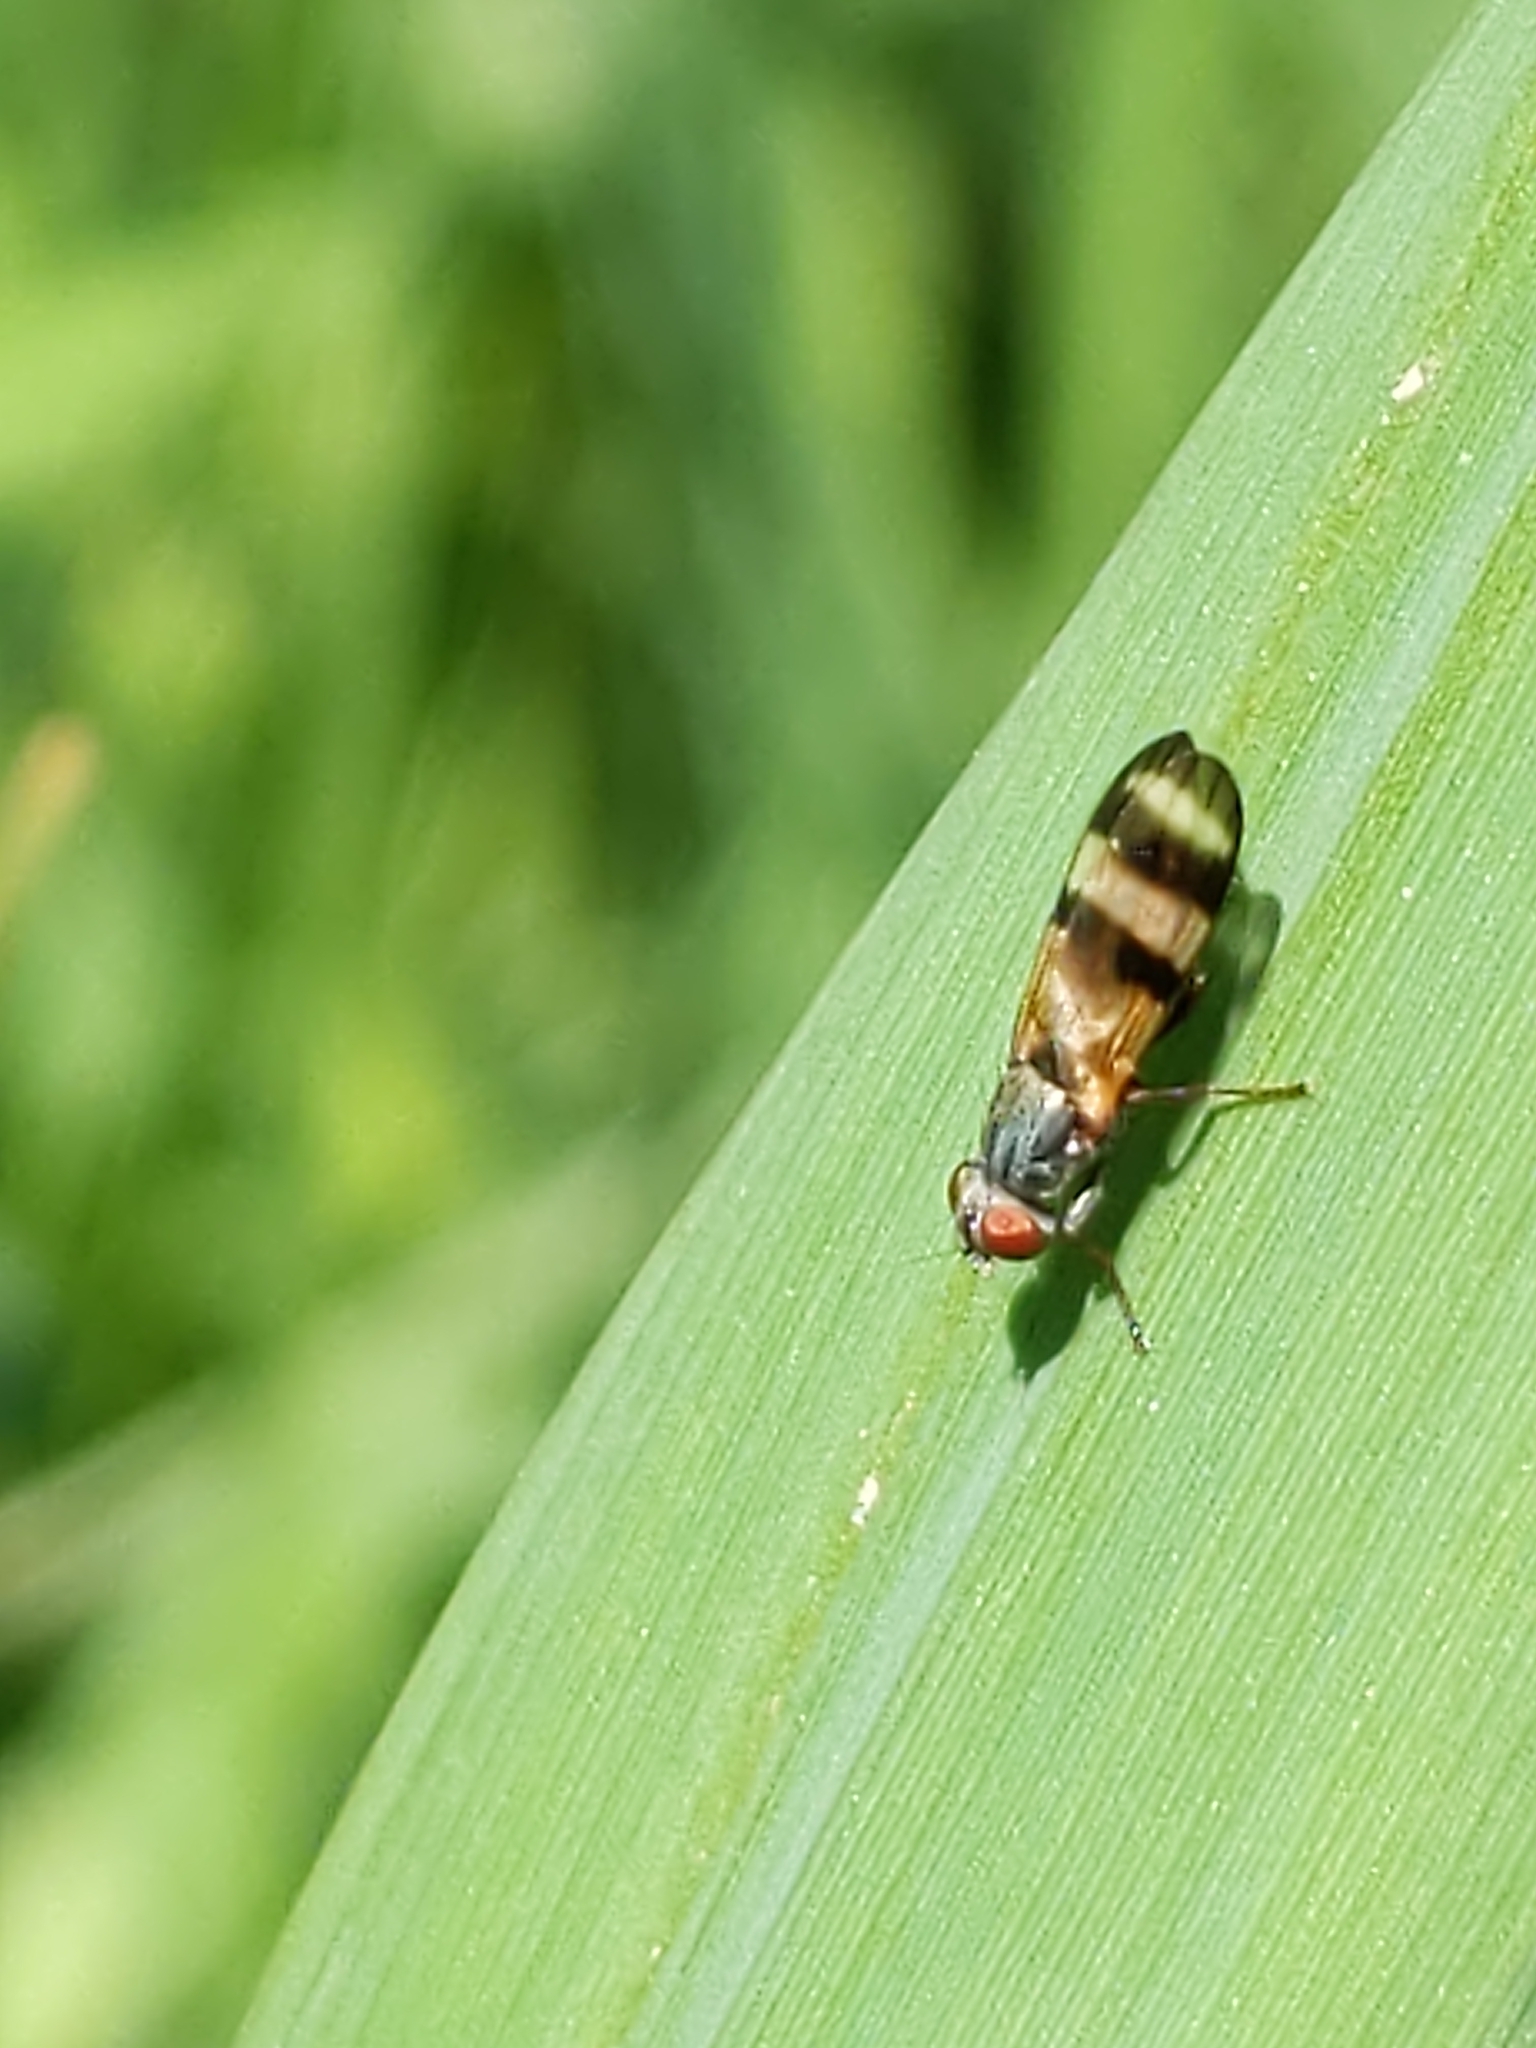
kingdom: Animalia
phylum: Arthropoda
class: Insecta
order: Diptera
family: Ulidiidae
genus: Chaetopsis
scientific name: Chaetopsis
